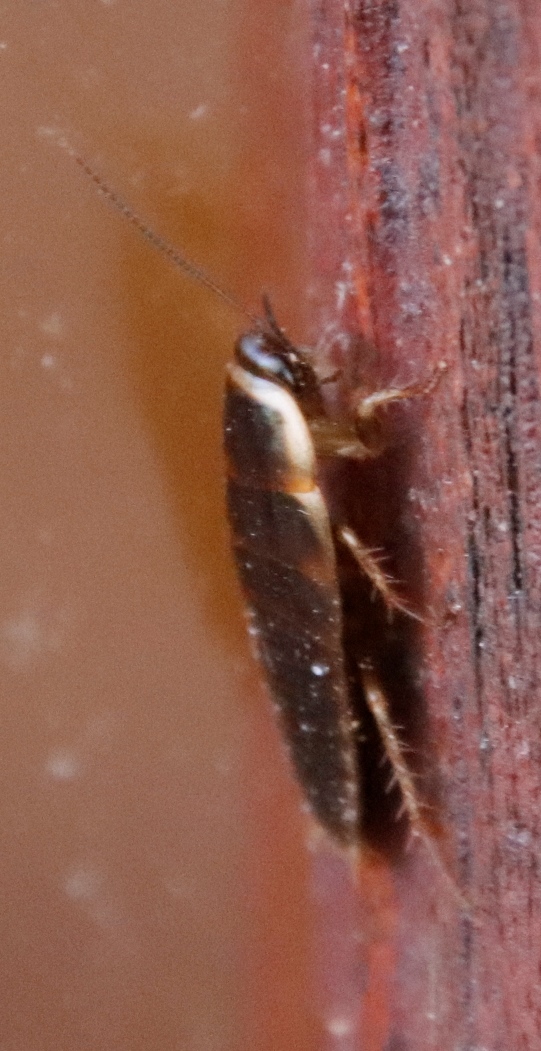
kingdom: Animalia
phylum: Arthropoda
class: Insecta
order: Blattodea
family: Blaberidae
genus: Poeciloblatta
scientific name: Poeciloblatta angusta
